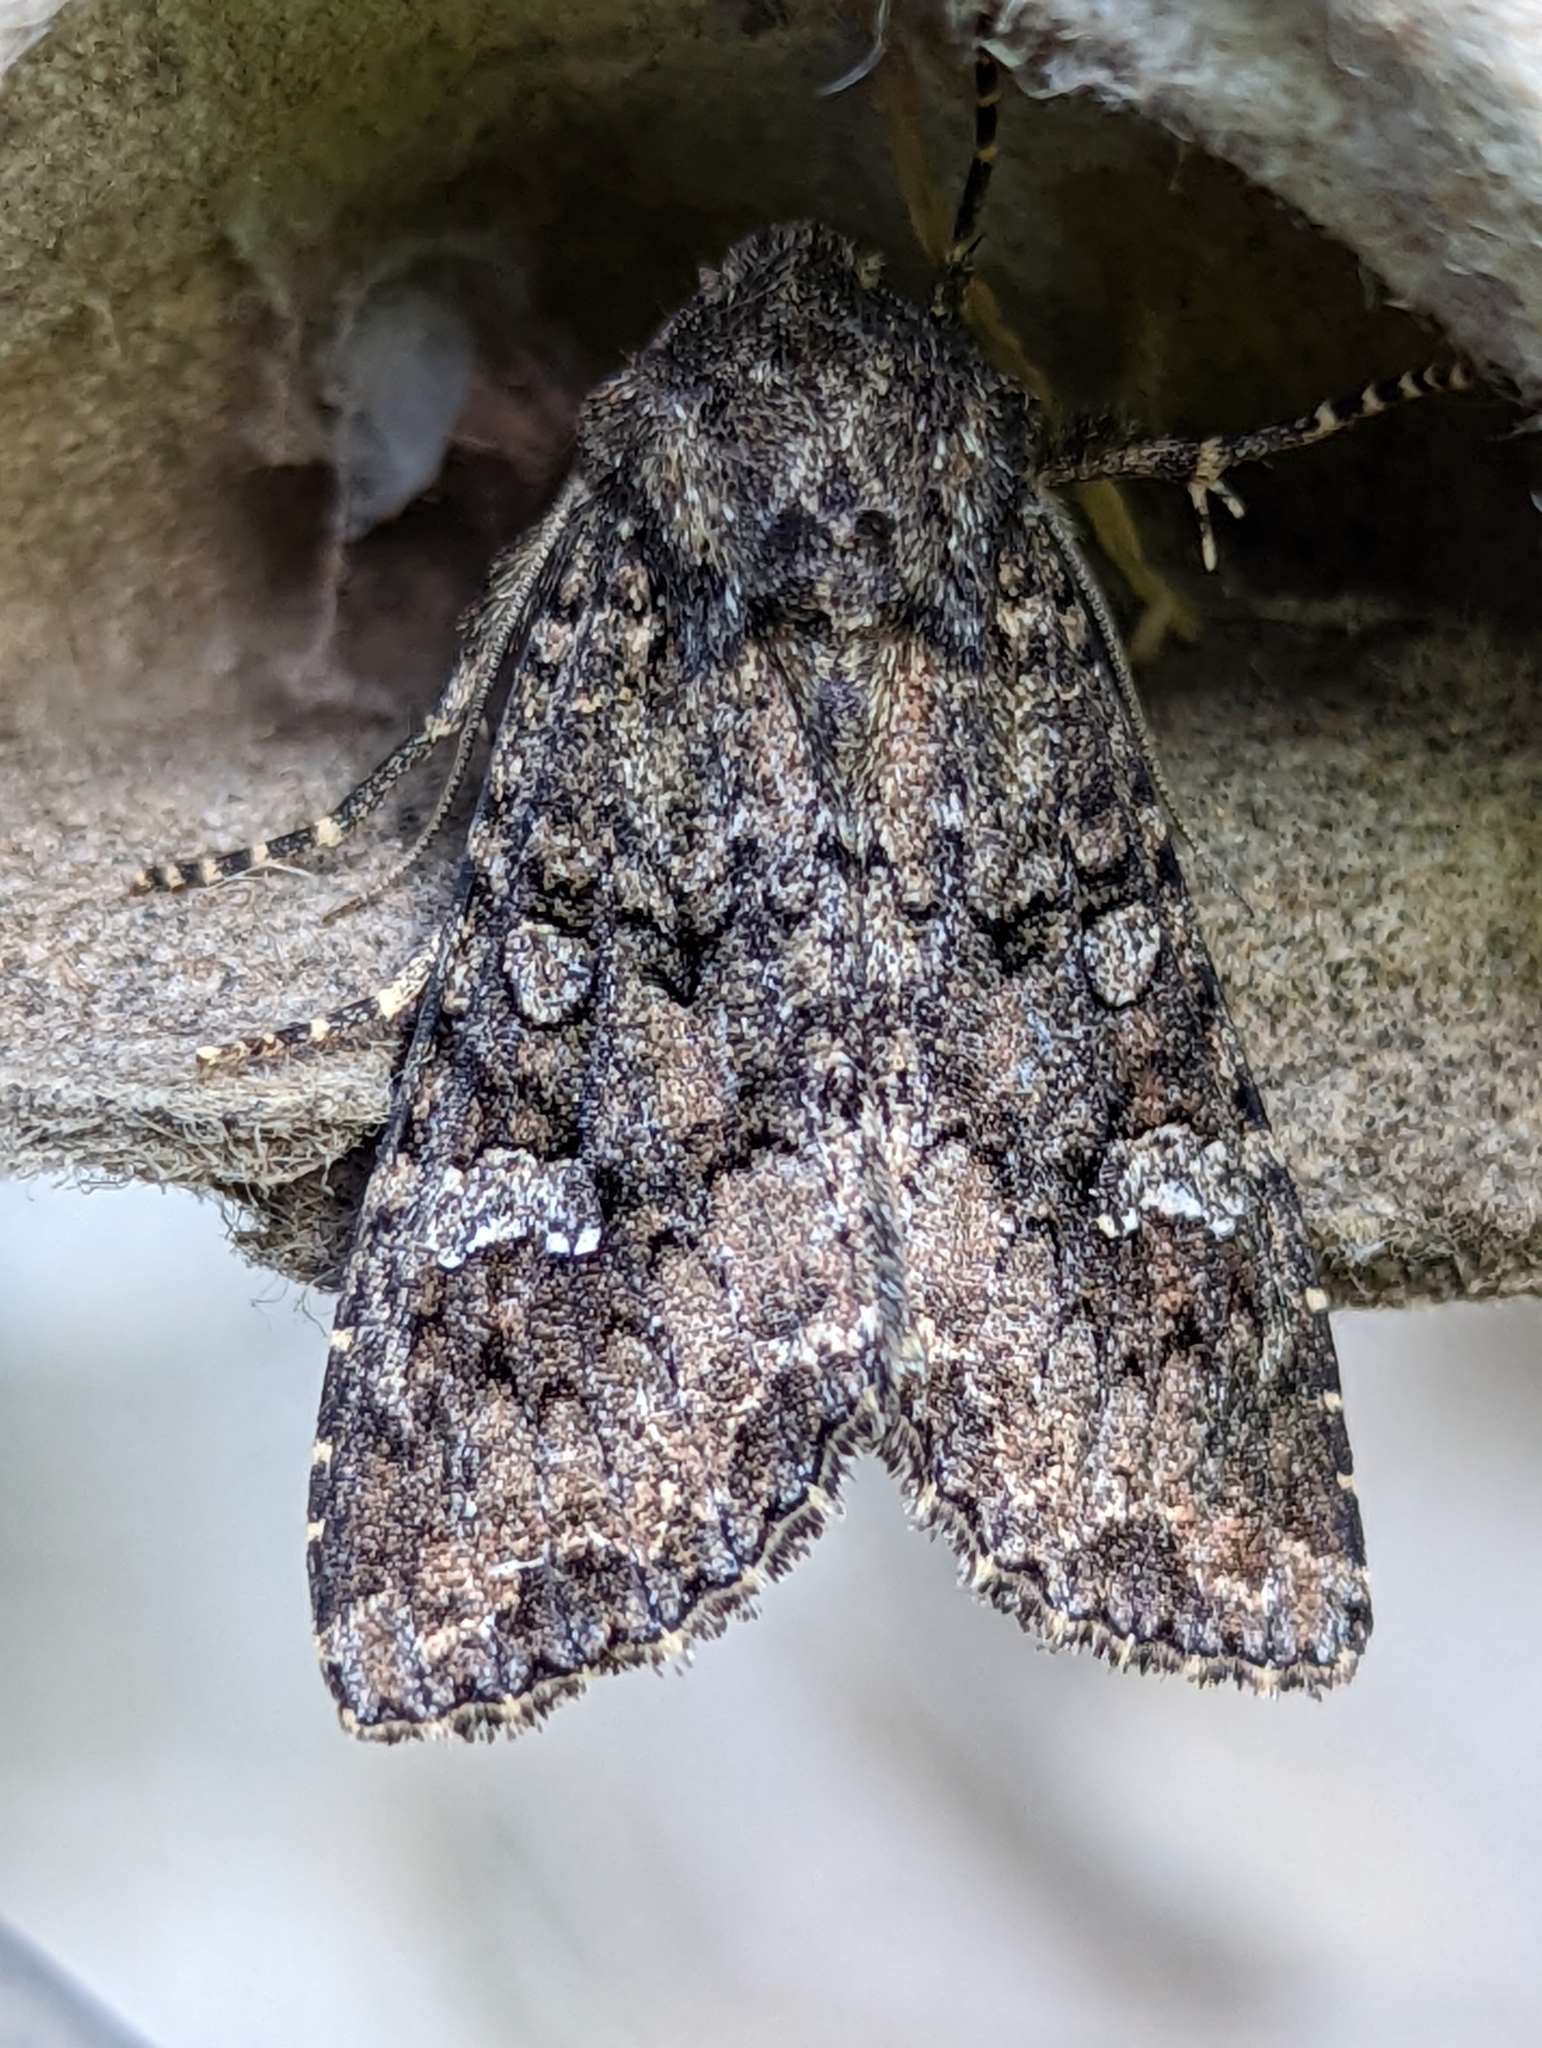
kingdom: Animalia
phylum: Arthropoda
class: Insecta
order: Lepidoptera
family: Noctuidae
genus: Mamestra
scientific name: Mamestra brassicae
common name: Cabbage moth
